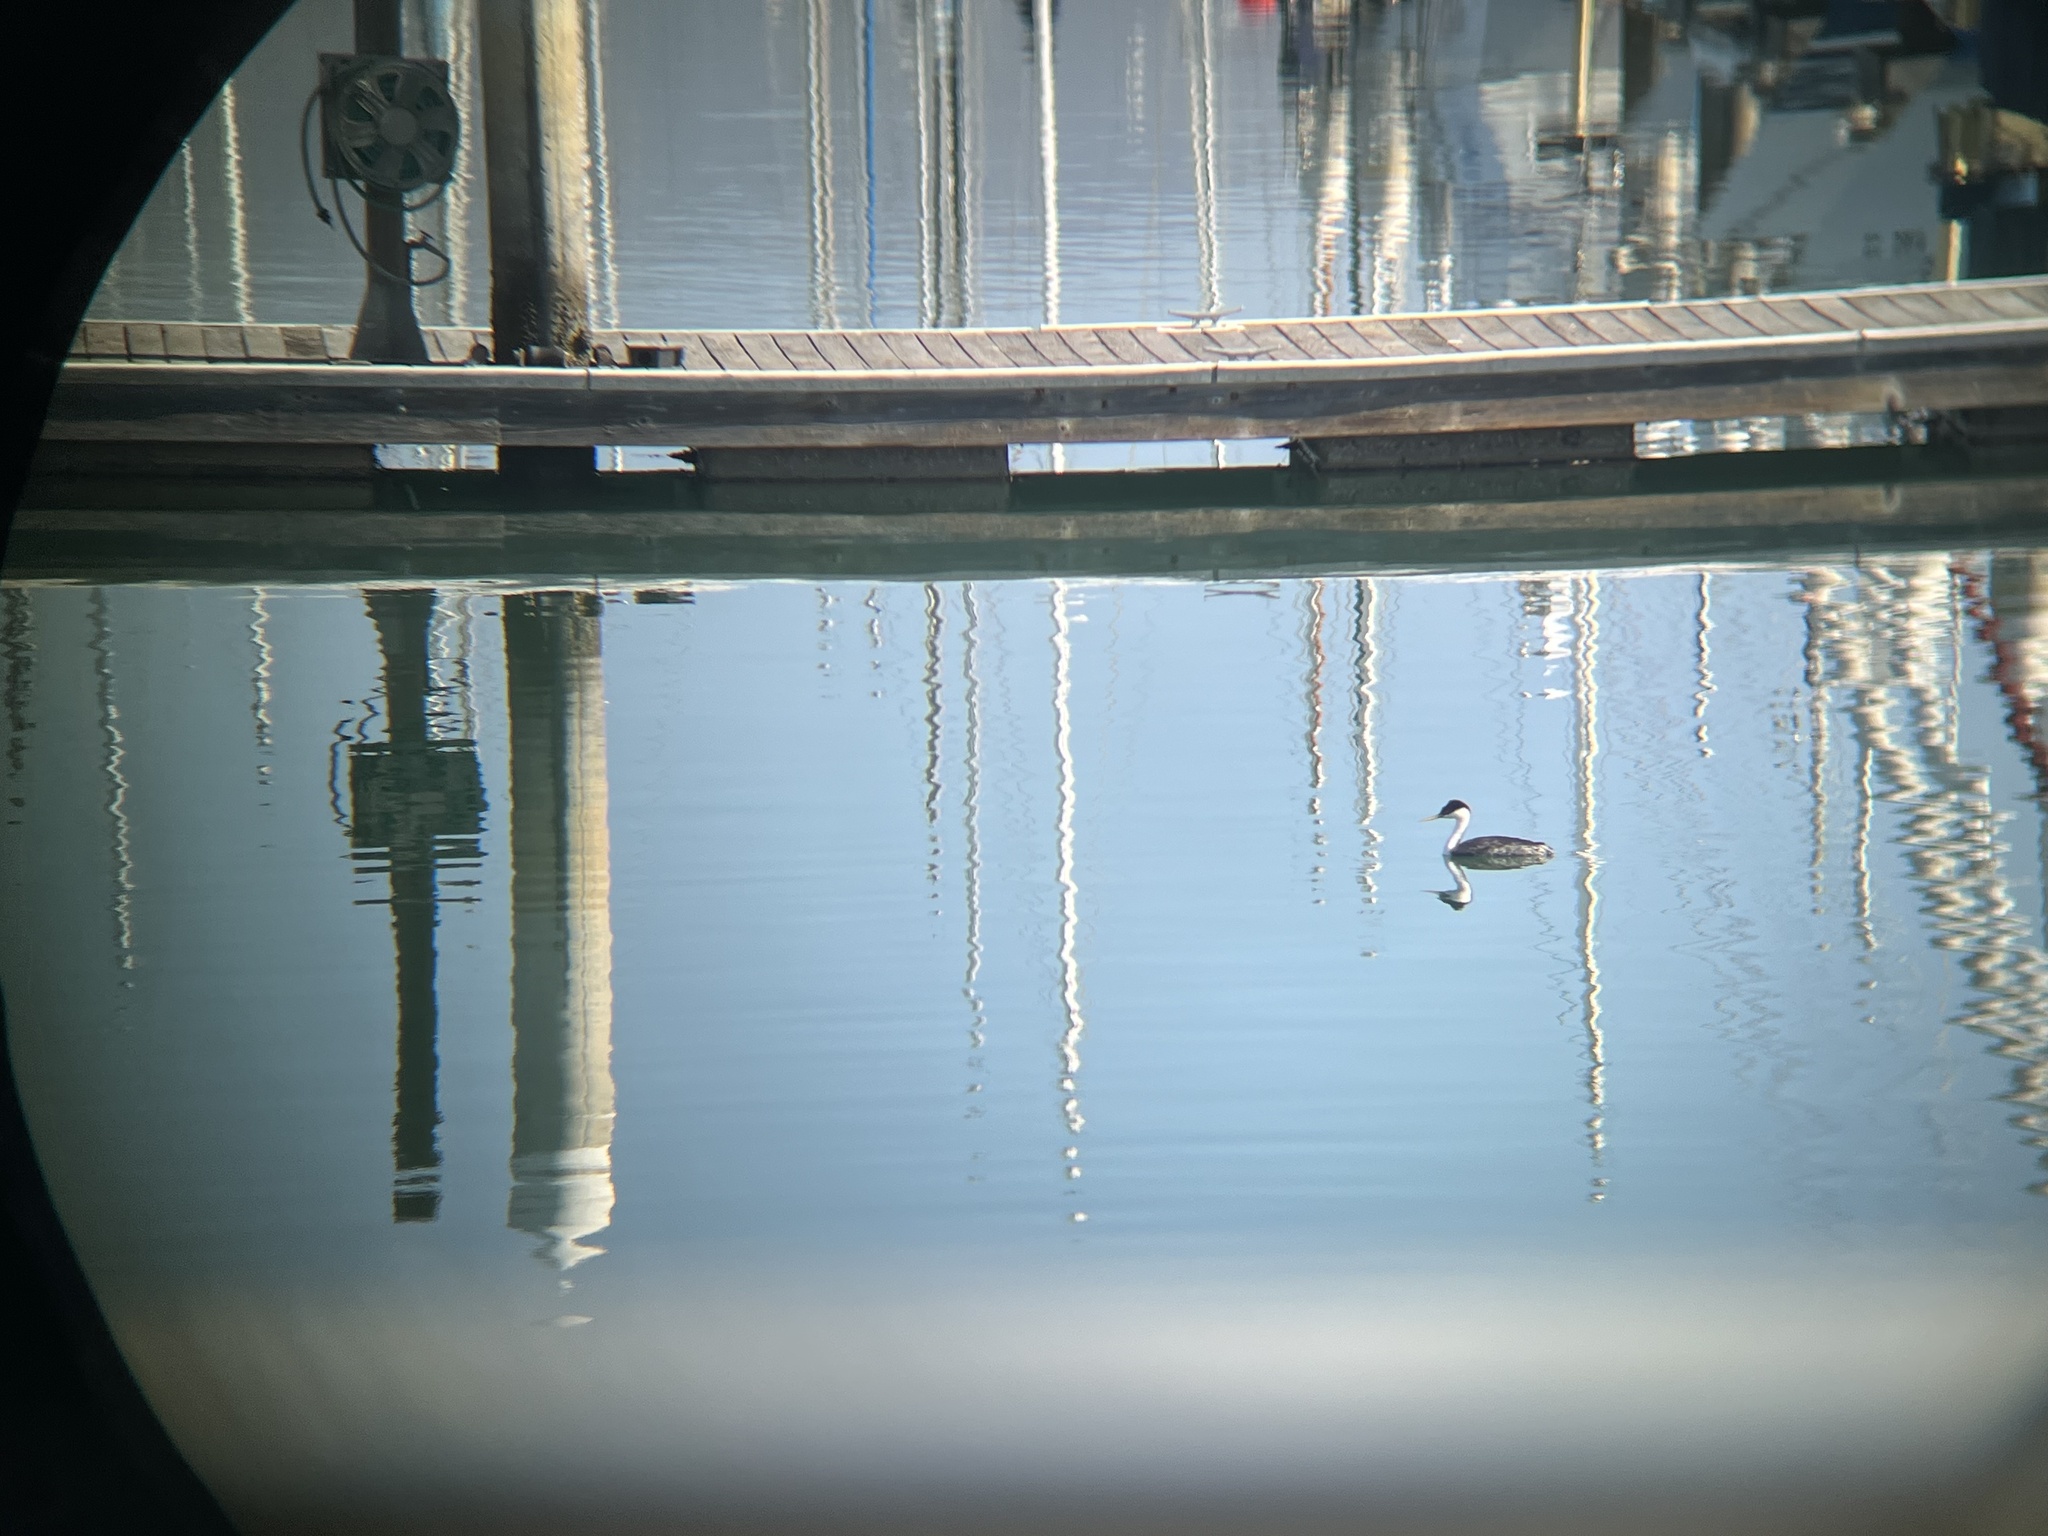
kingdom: Animalia
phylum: Chordata
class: Aves
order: Podicipediformes
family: Podicipedidae
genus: Aechmophorus
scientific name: Aechmophorus occidentalis
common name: Western grebe
